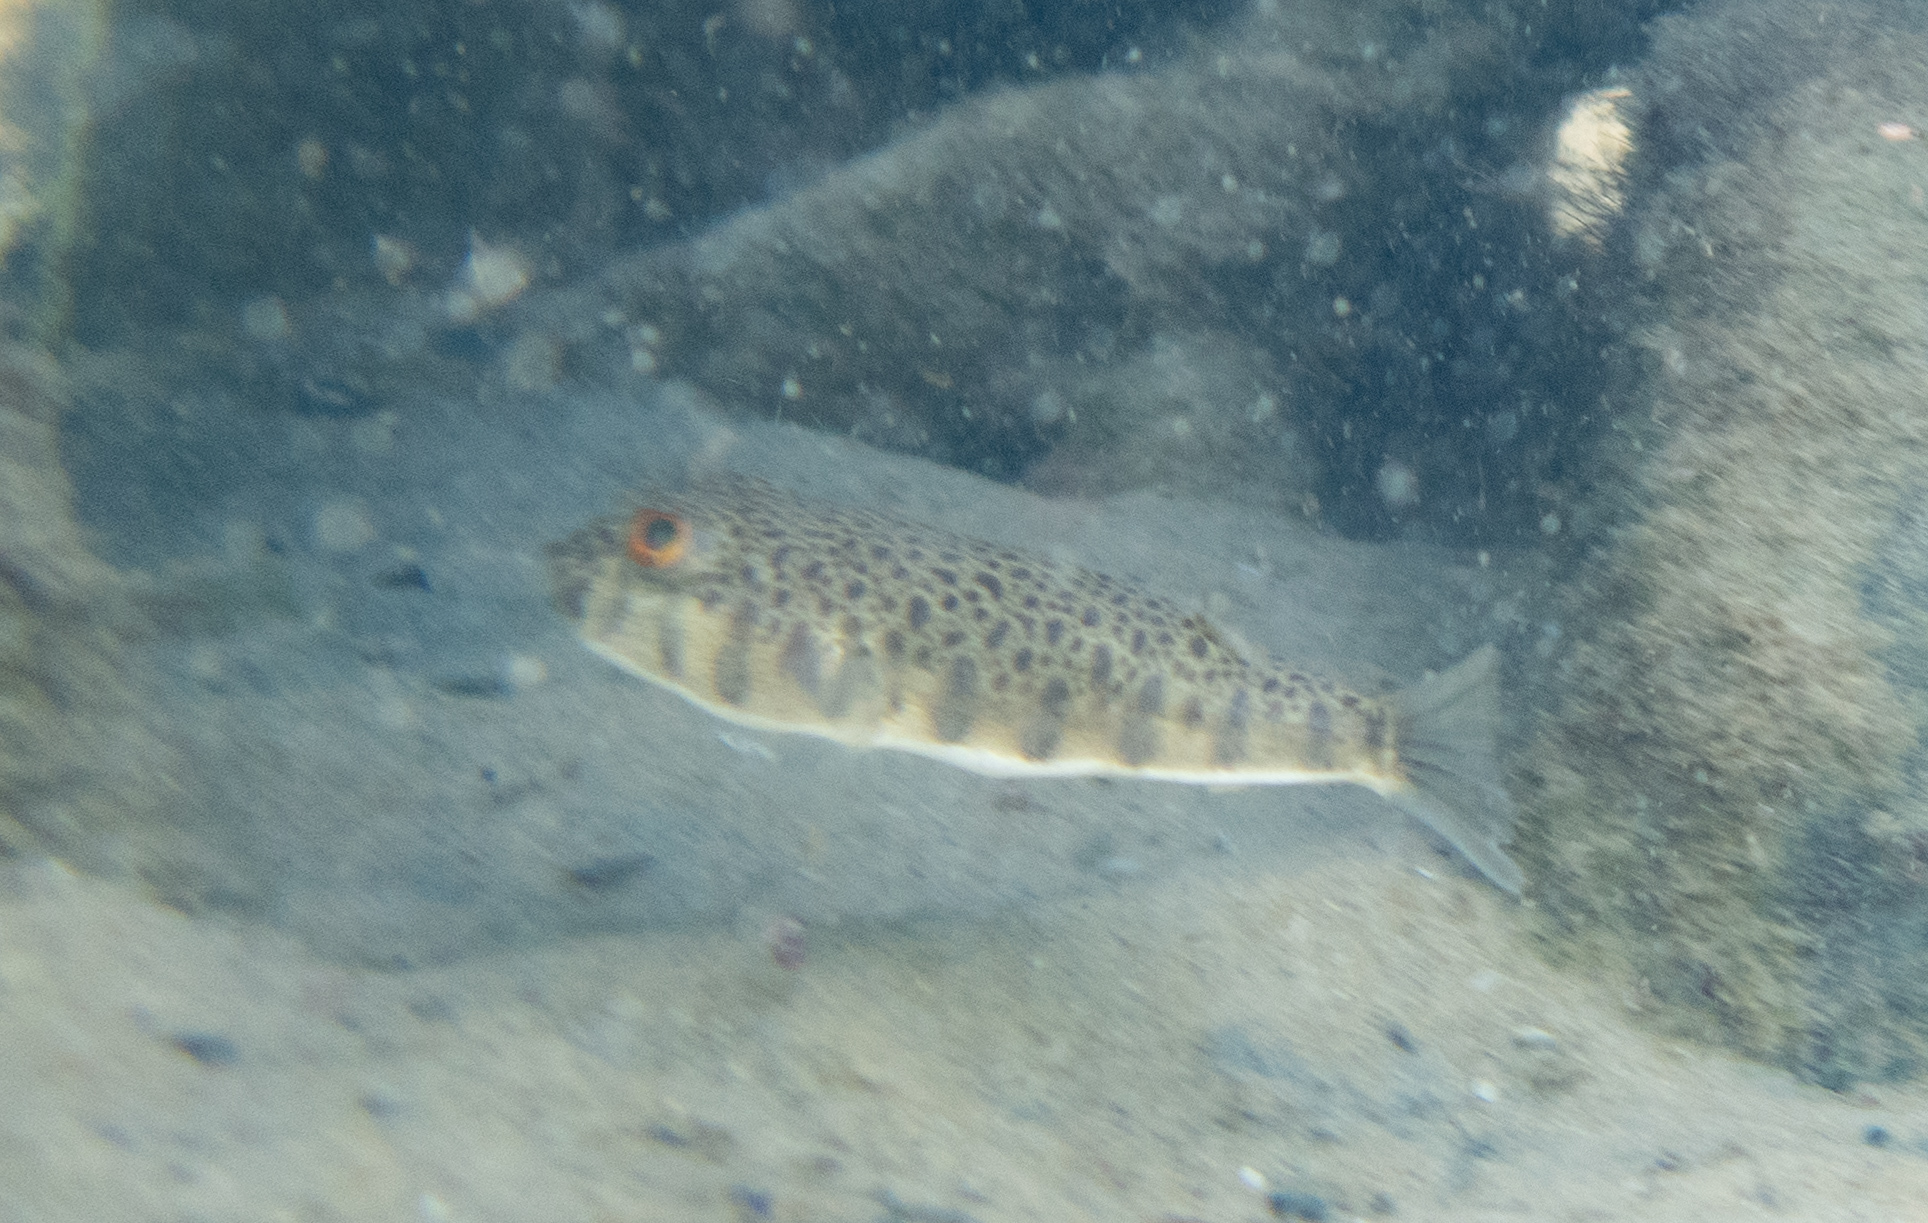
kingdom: Animalia
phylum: Chordata
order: Tetraodontiformes
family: Tetraodontidae
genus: Tetractenos
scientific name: Tetractenos hamiltoni
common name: Common toadfish
